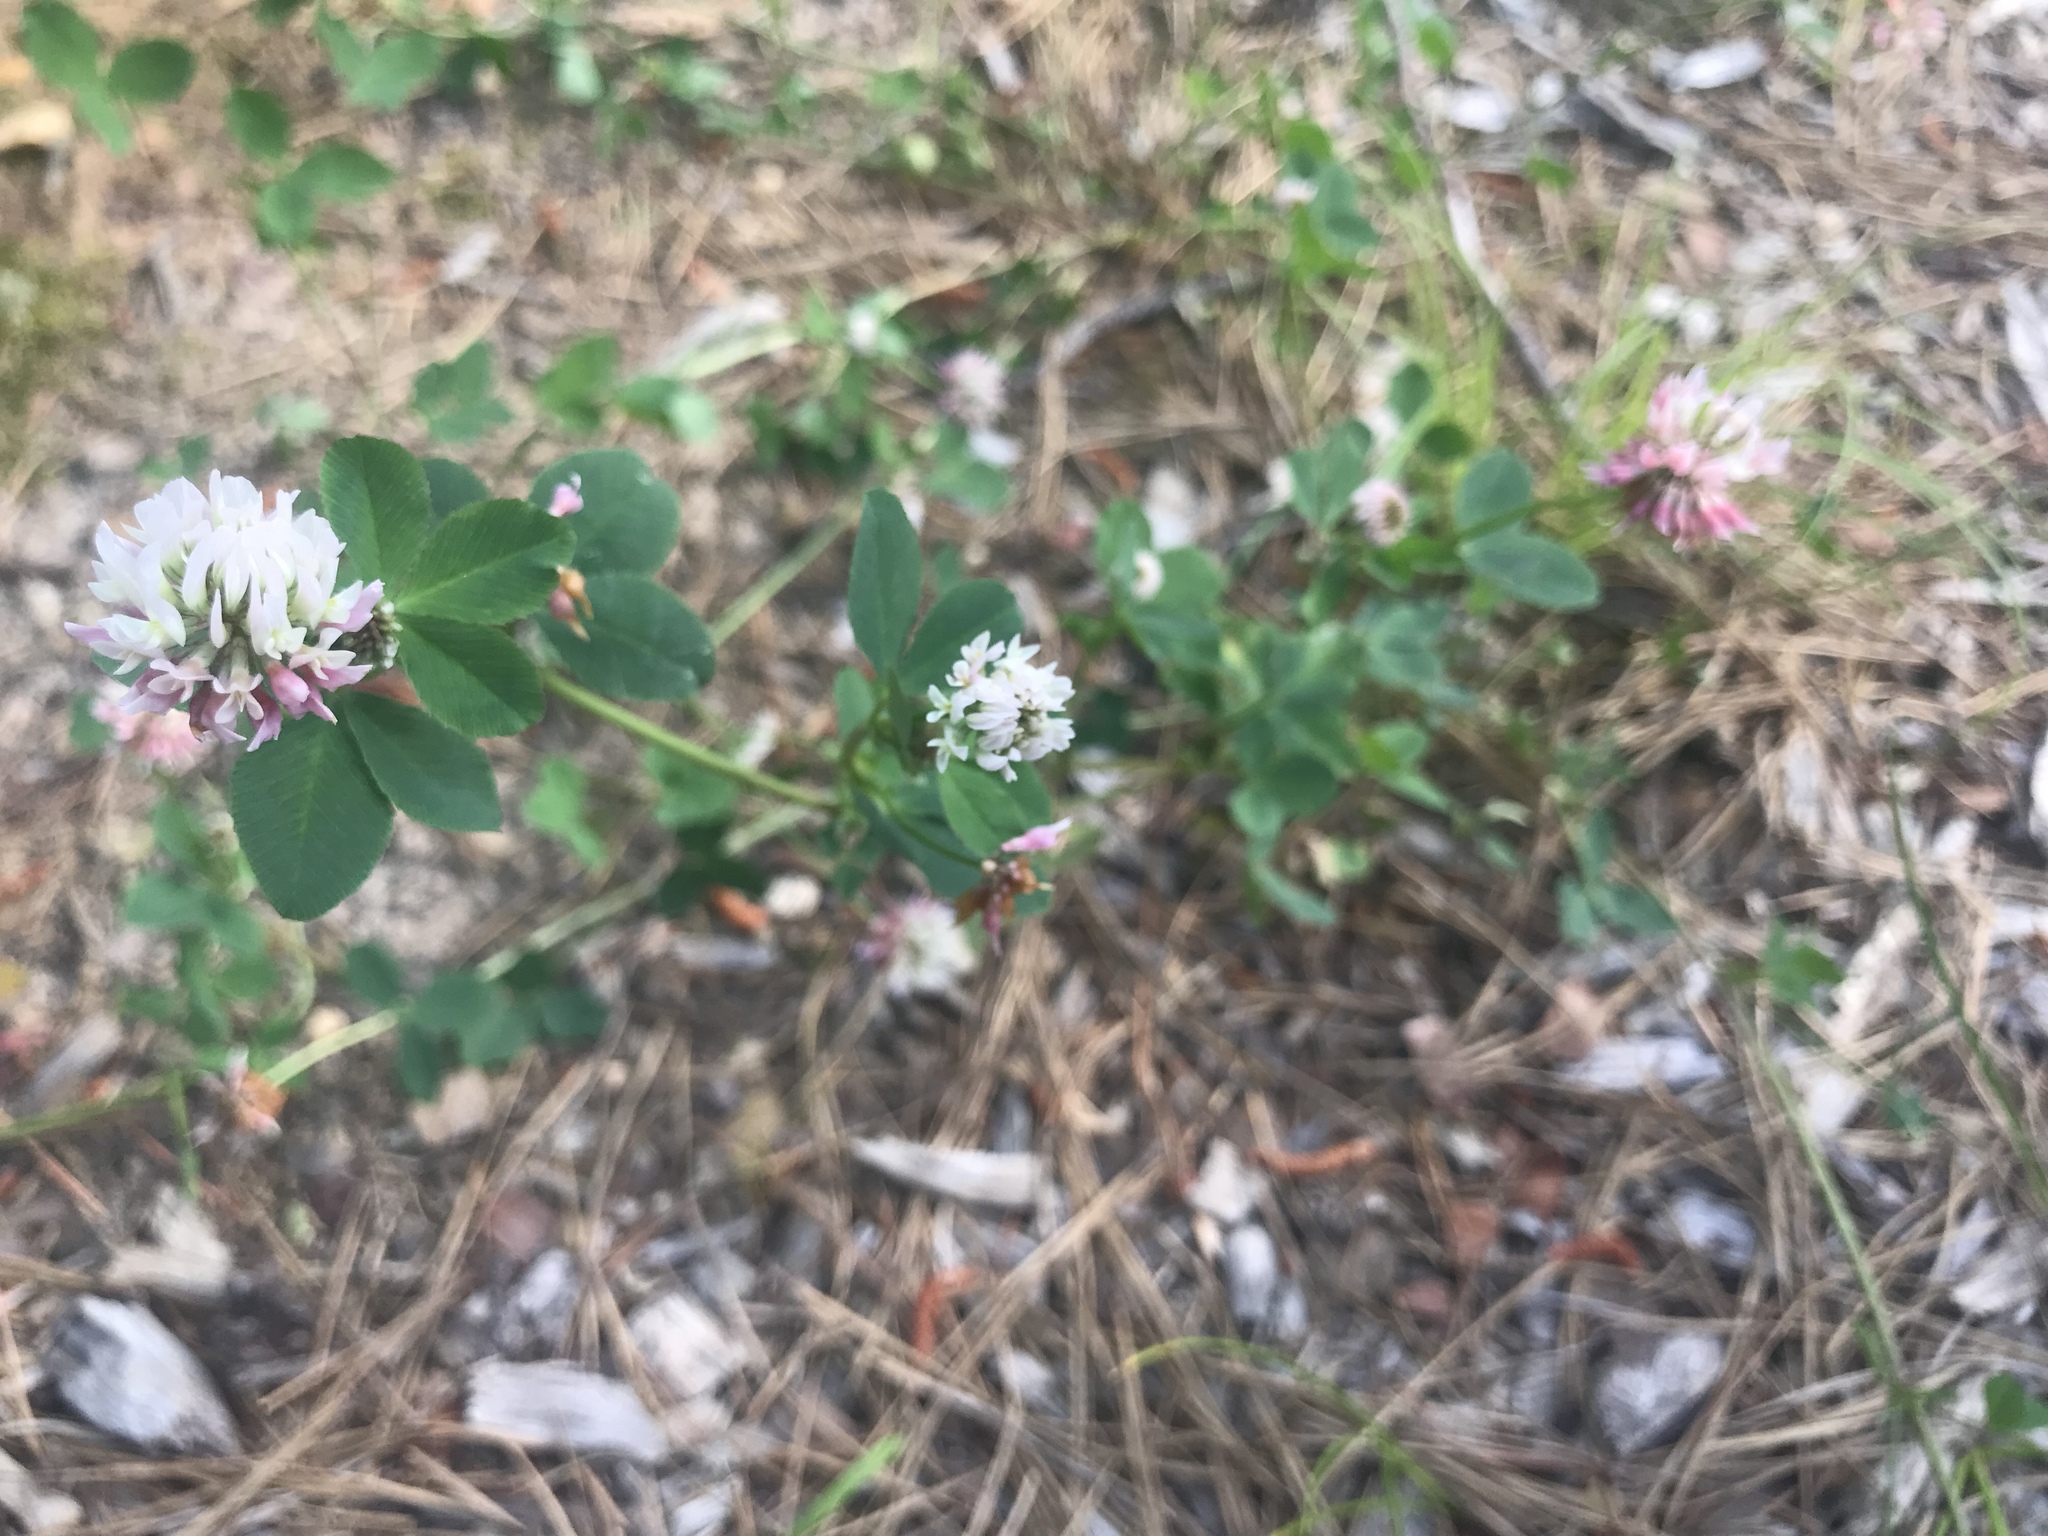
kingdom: Plantae
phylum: Tracheophyta
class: Magnoliopsida
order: Fabales
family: Fabaceae
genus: Trifolium
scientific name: Trifolium hybridum
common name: Alsike clover
